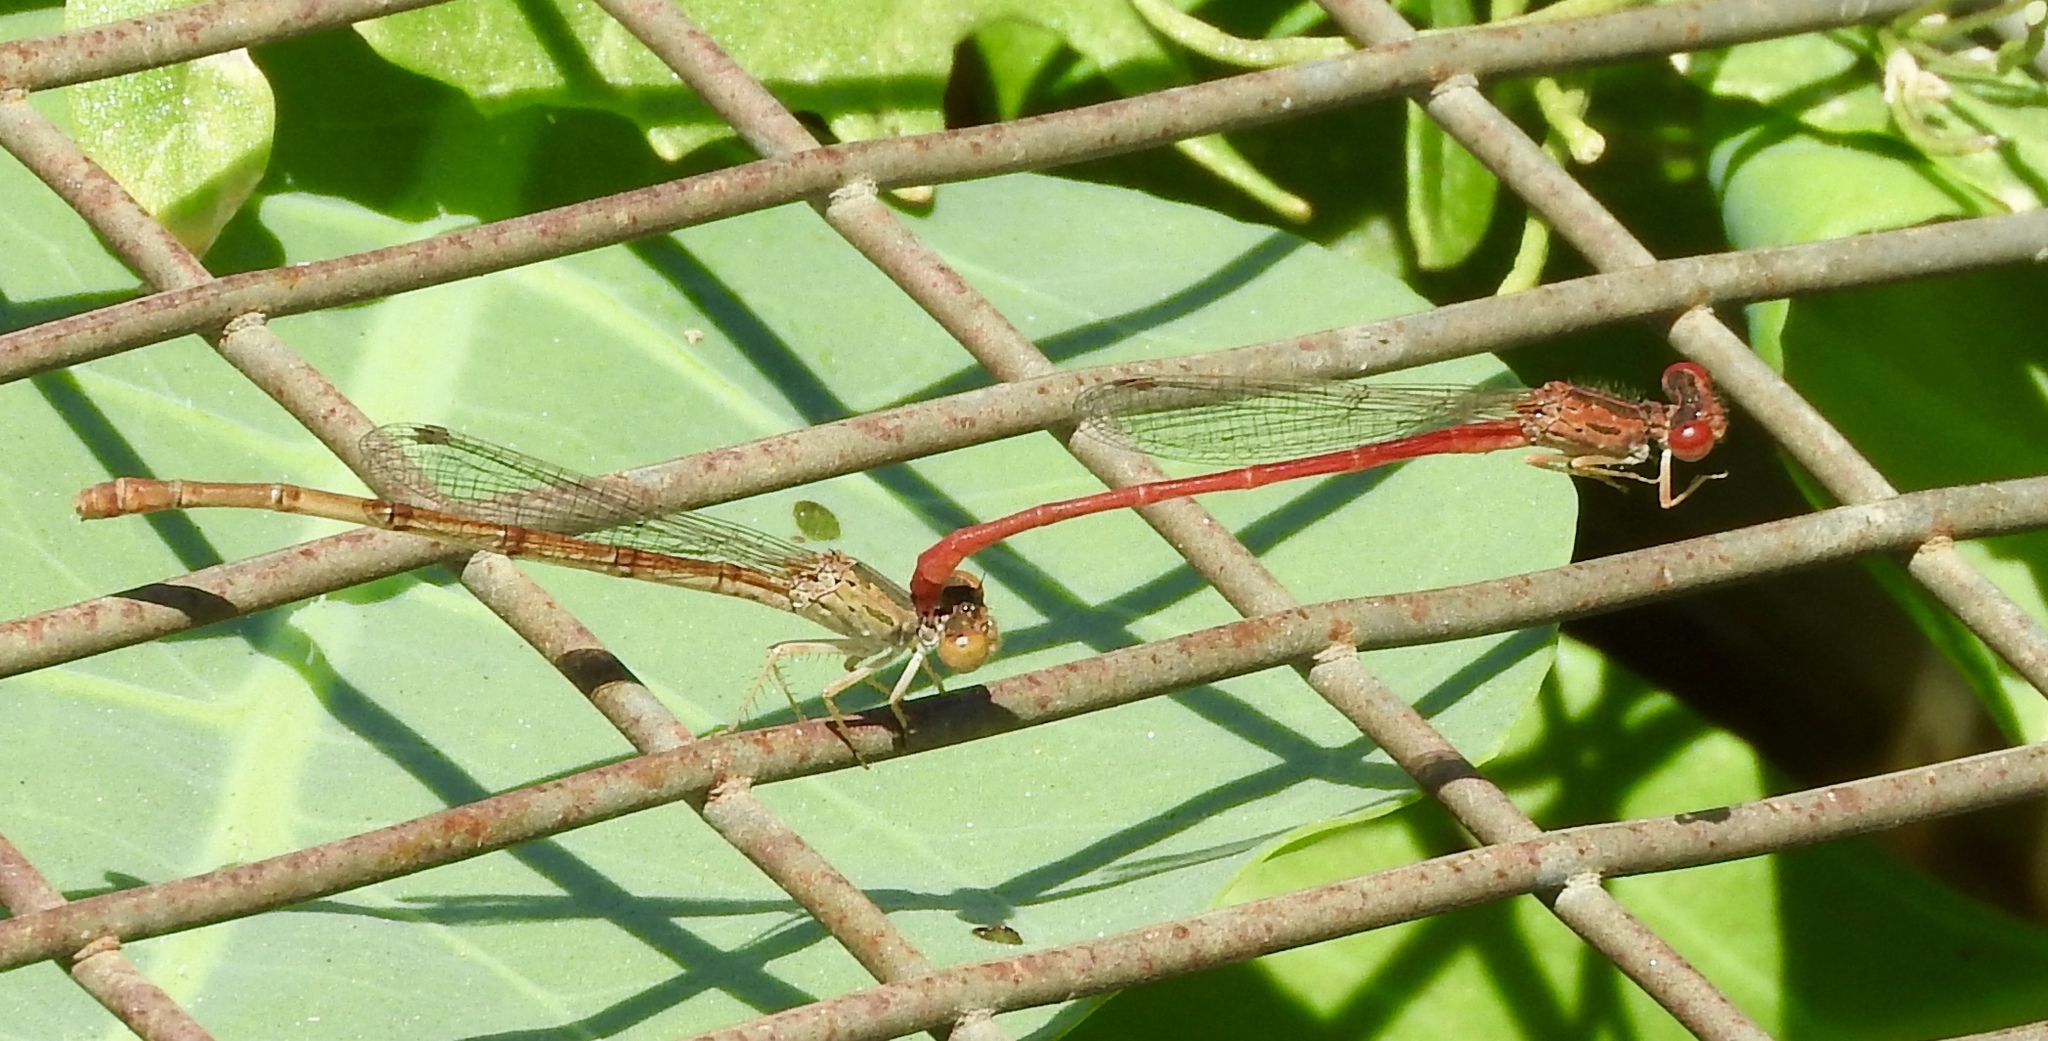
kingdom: Animalia
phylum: Arthropoda
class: Insecta
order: Odonata
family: Coenagrionidae
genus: Telebasis
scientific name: Telebasis salva
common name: Desert firetail
